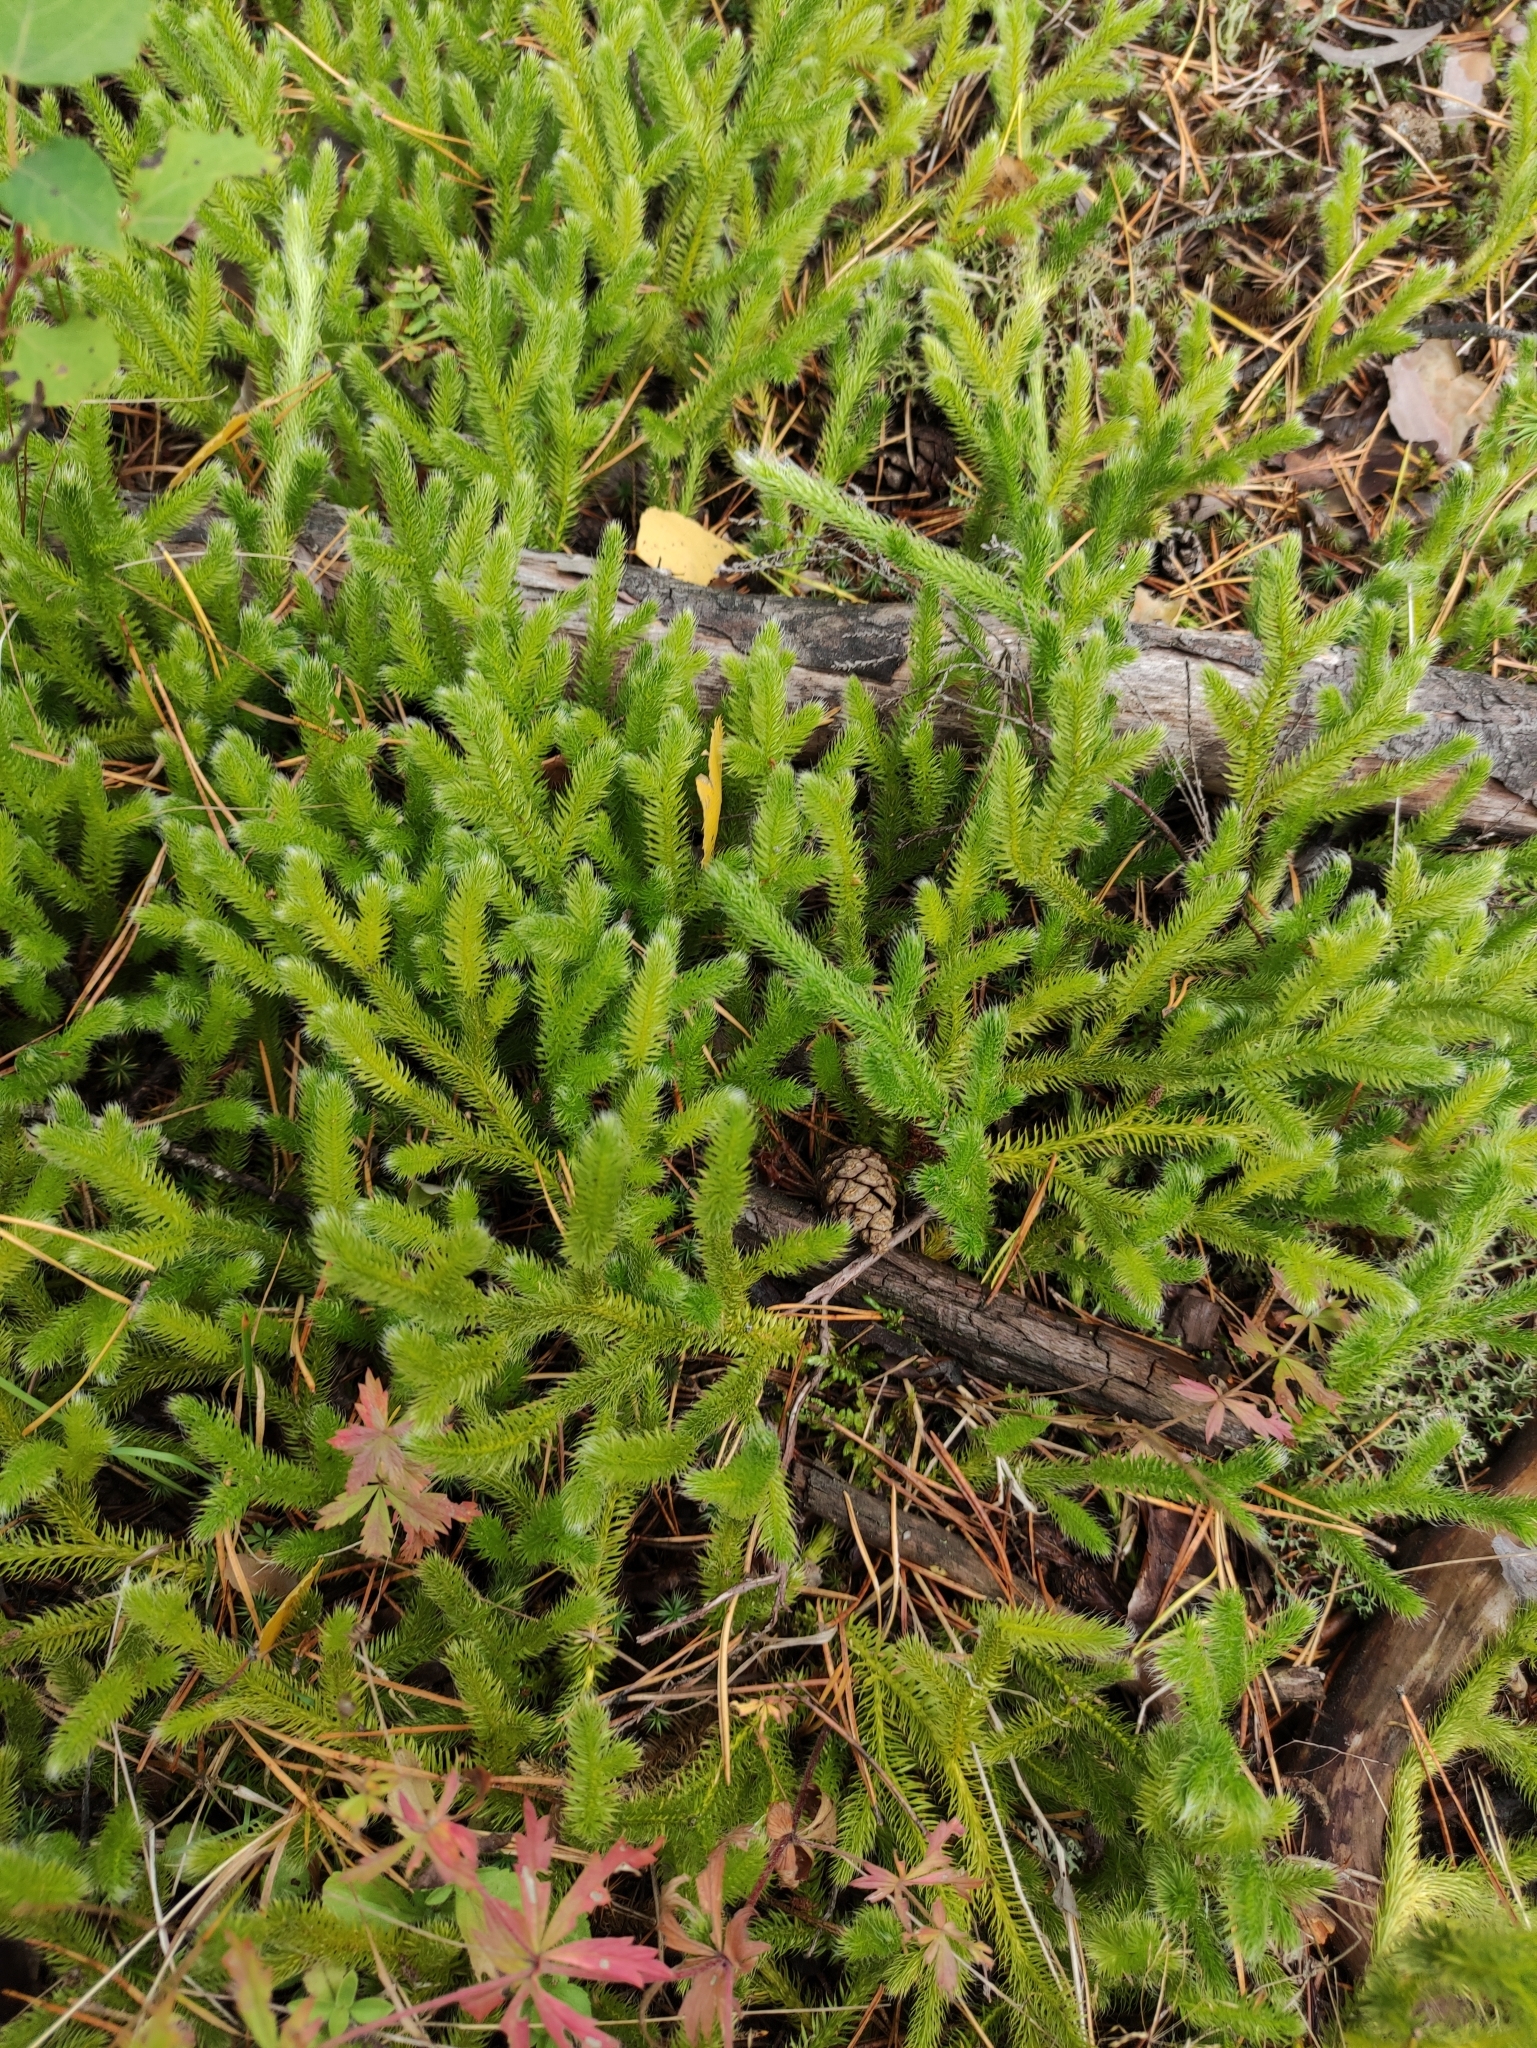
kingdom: Plantae
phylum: Tracheophyta
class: Lycopodiopsida
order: Lycopodiales
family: Lycopodiaceae
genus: Lycopodium
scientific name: Lycopodium clavatum
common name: Stag's-horn clubmoss
